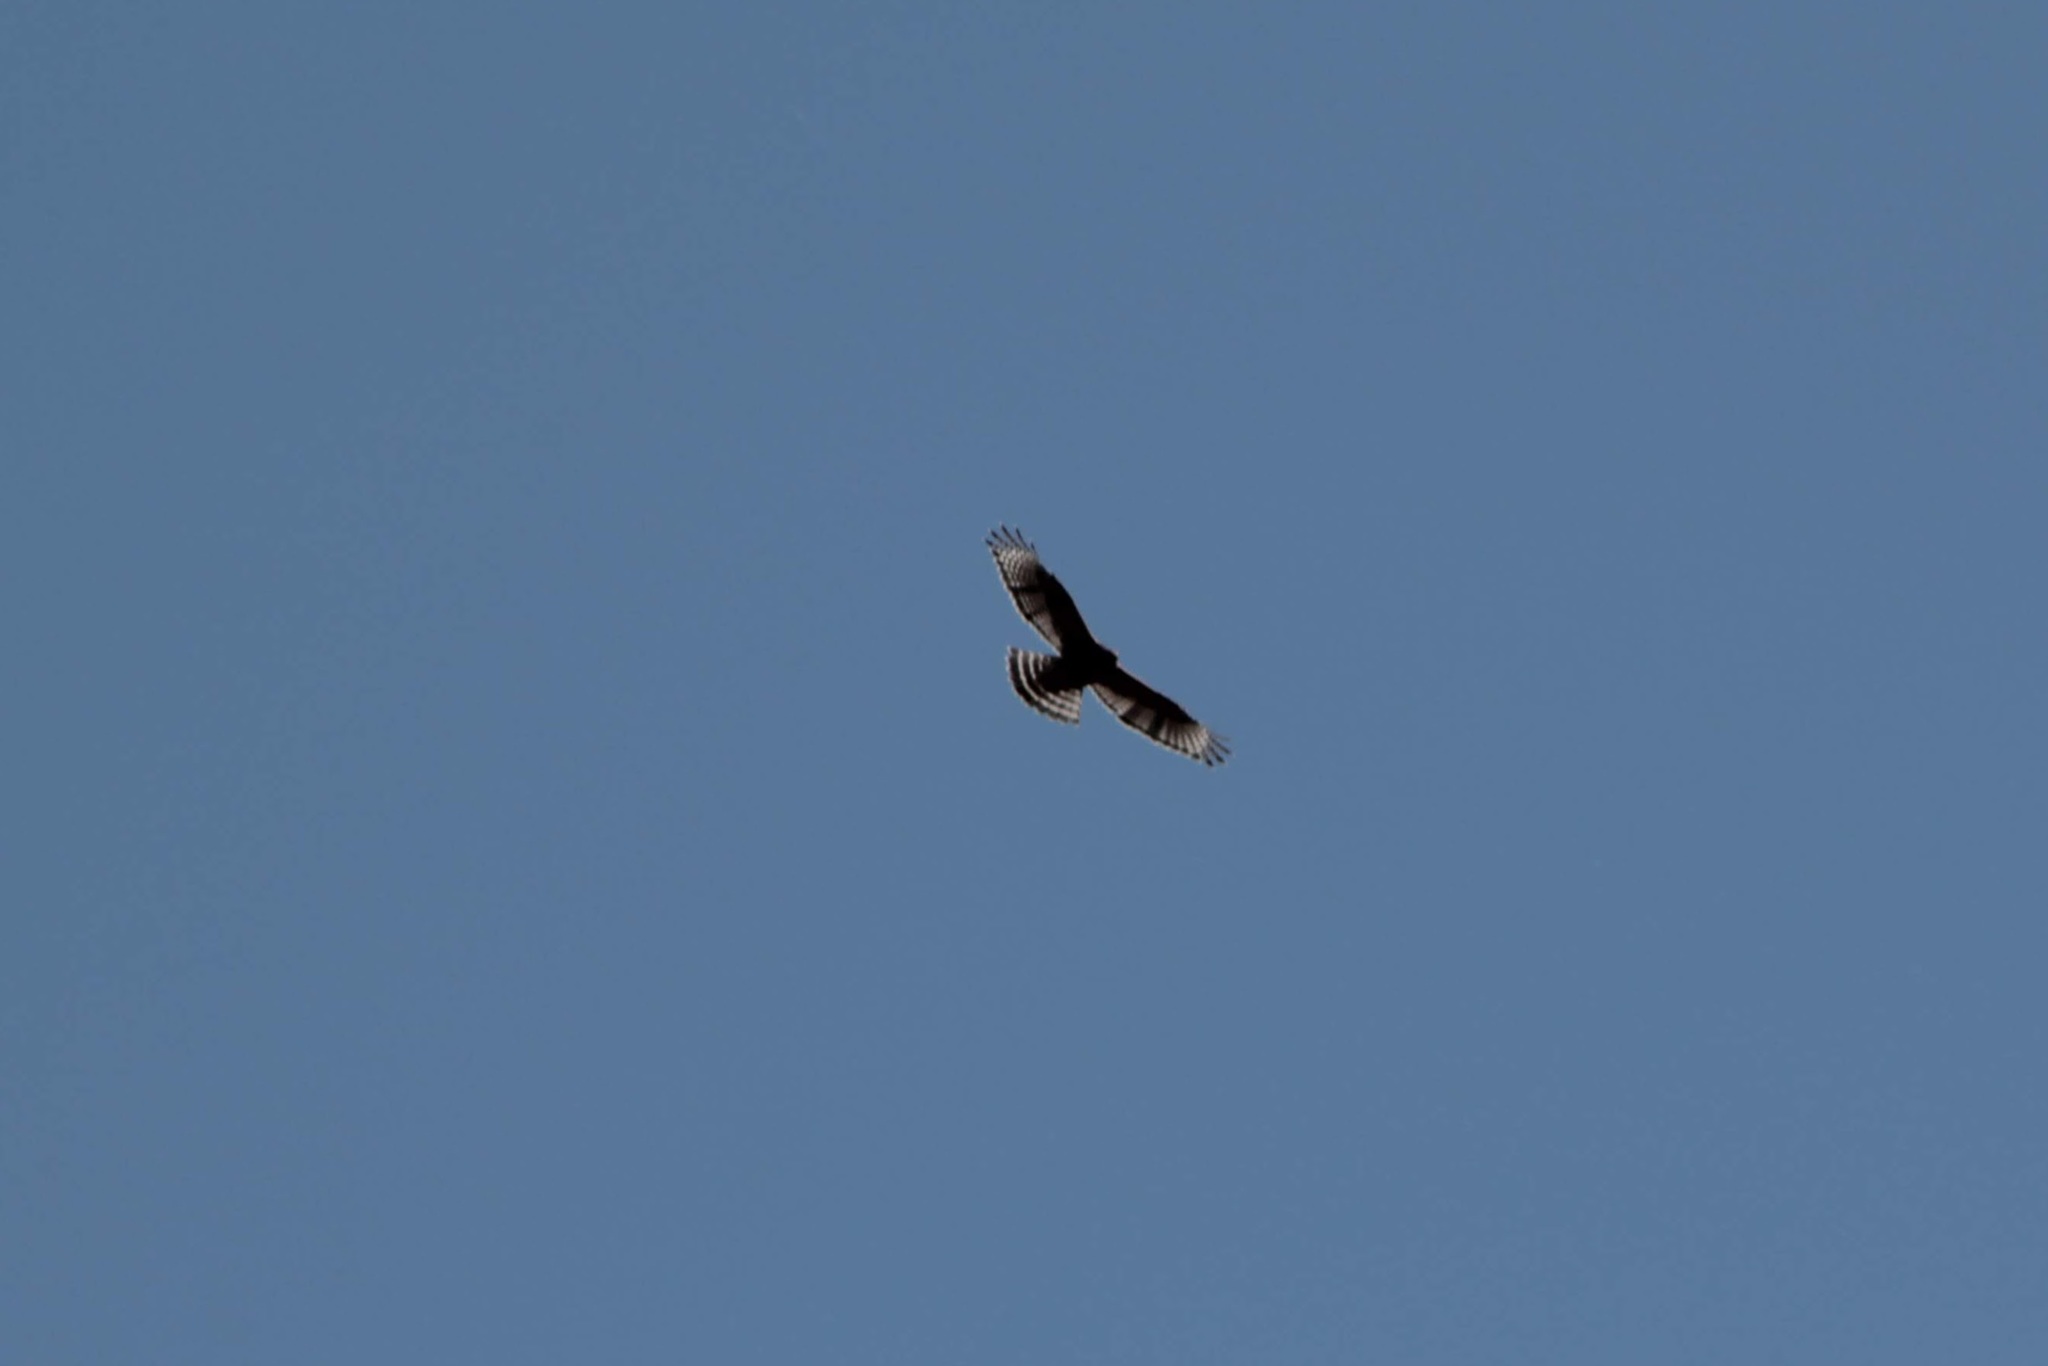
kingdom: Animalia
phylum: Chordata
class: Aves
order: Accipitriformes
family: Accipitridae
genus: Buteo
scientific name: Buteo lineatus
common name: Red-shouldered hawk
